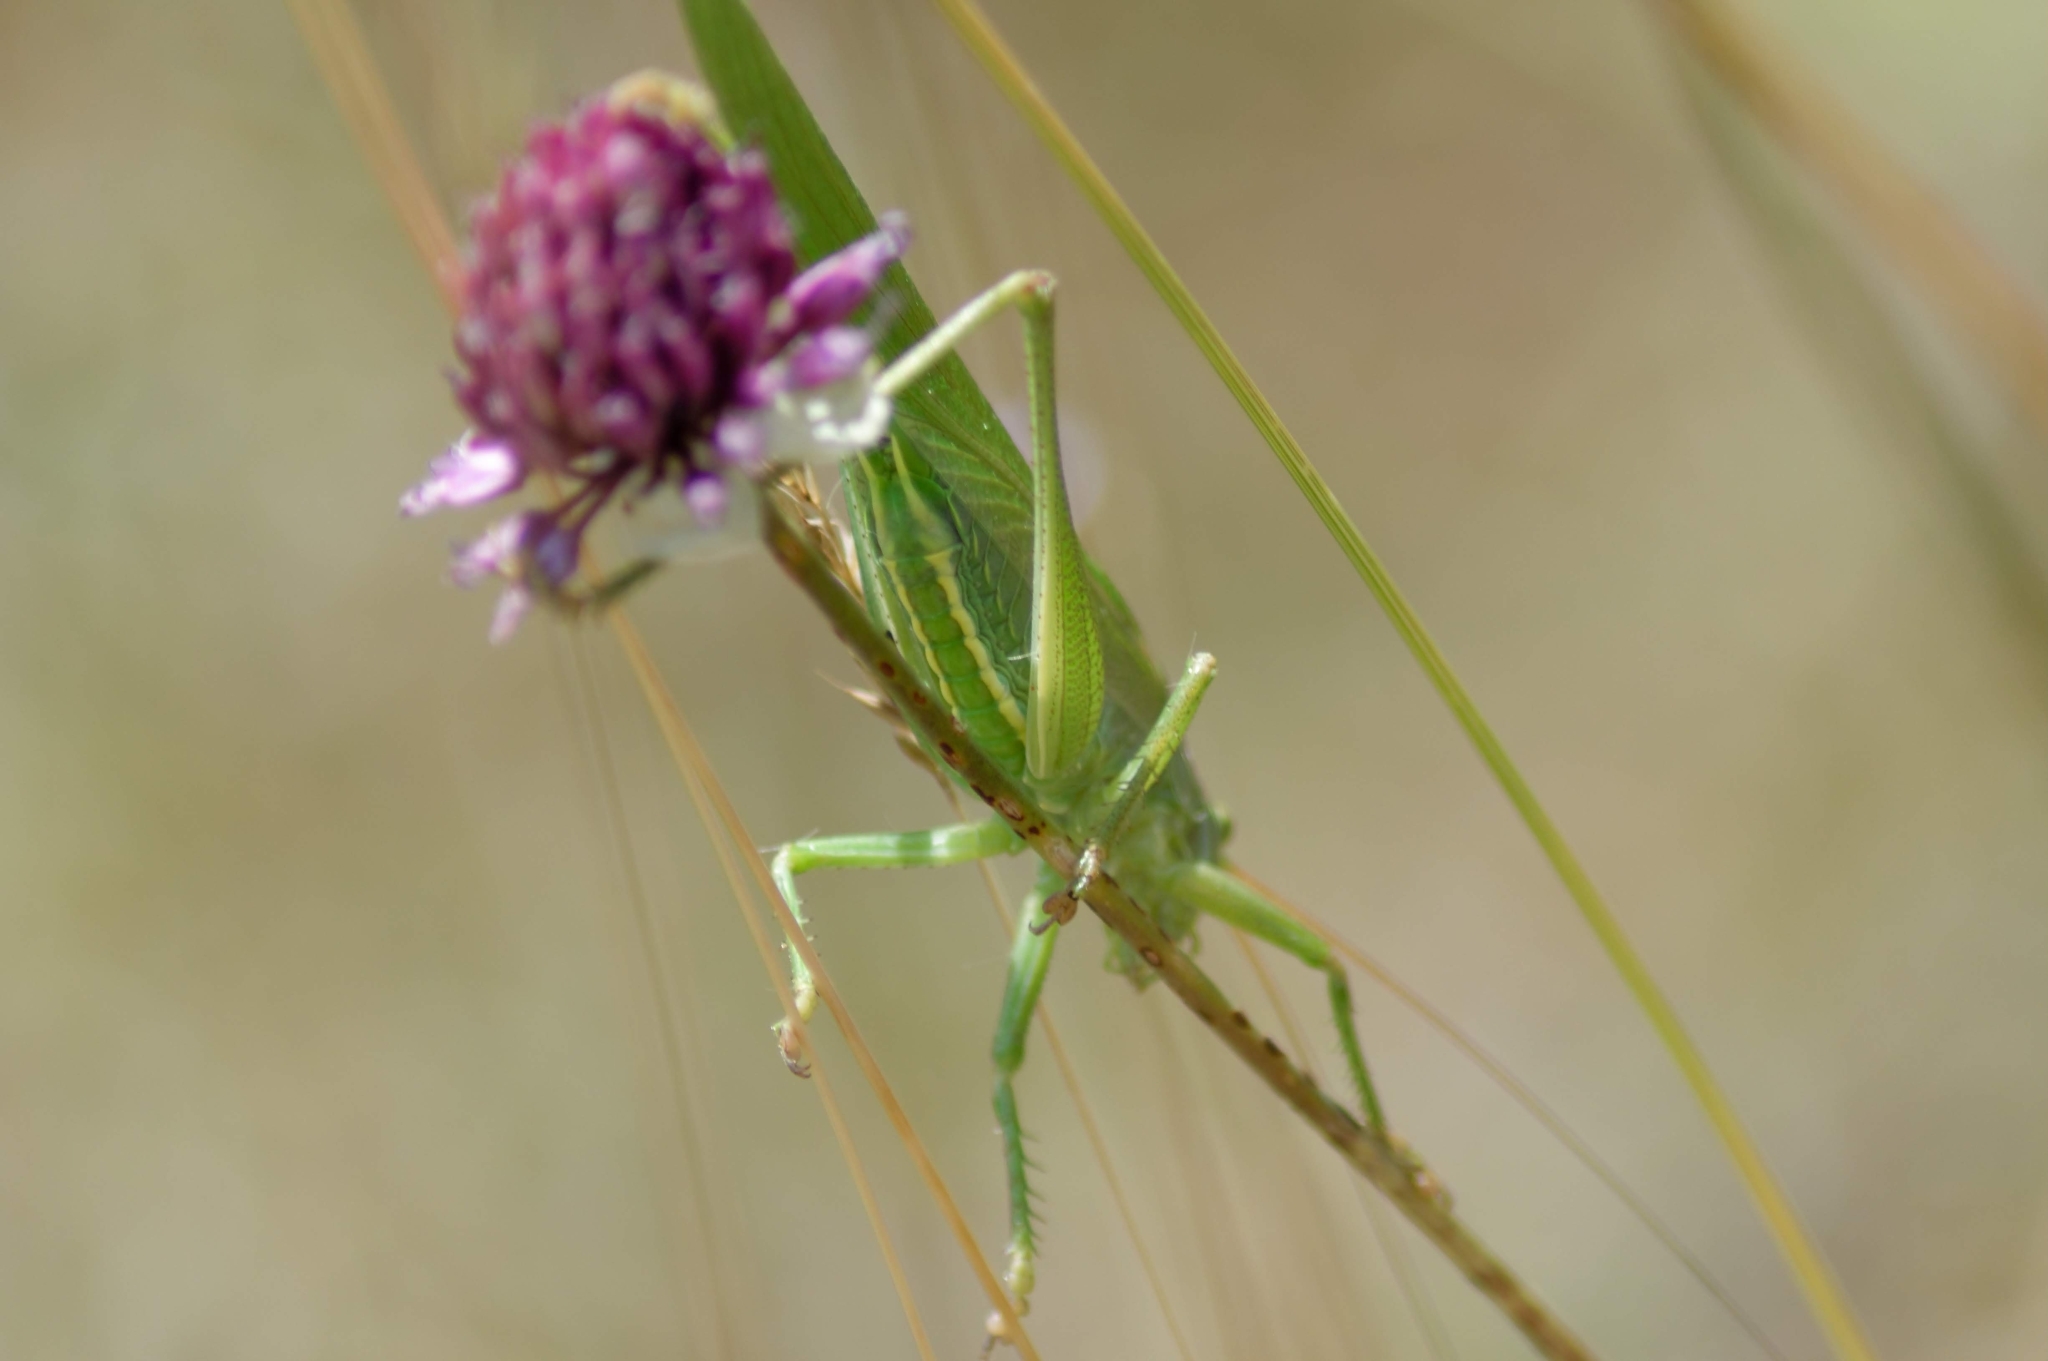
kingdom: Animalia
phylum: Arthropoda
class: Insecta
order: Orthoptera
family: Tettigoniidae
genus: Tettigonia
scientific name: Tettigonia viridissima
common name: Great green bush-cricket
